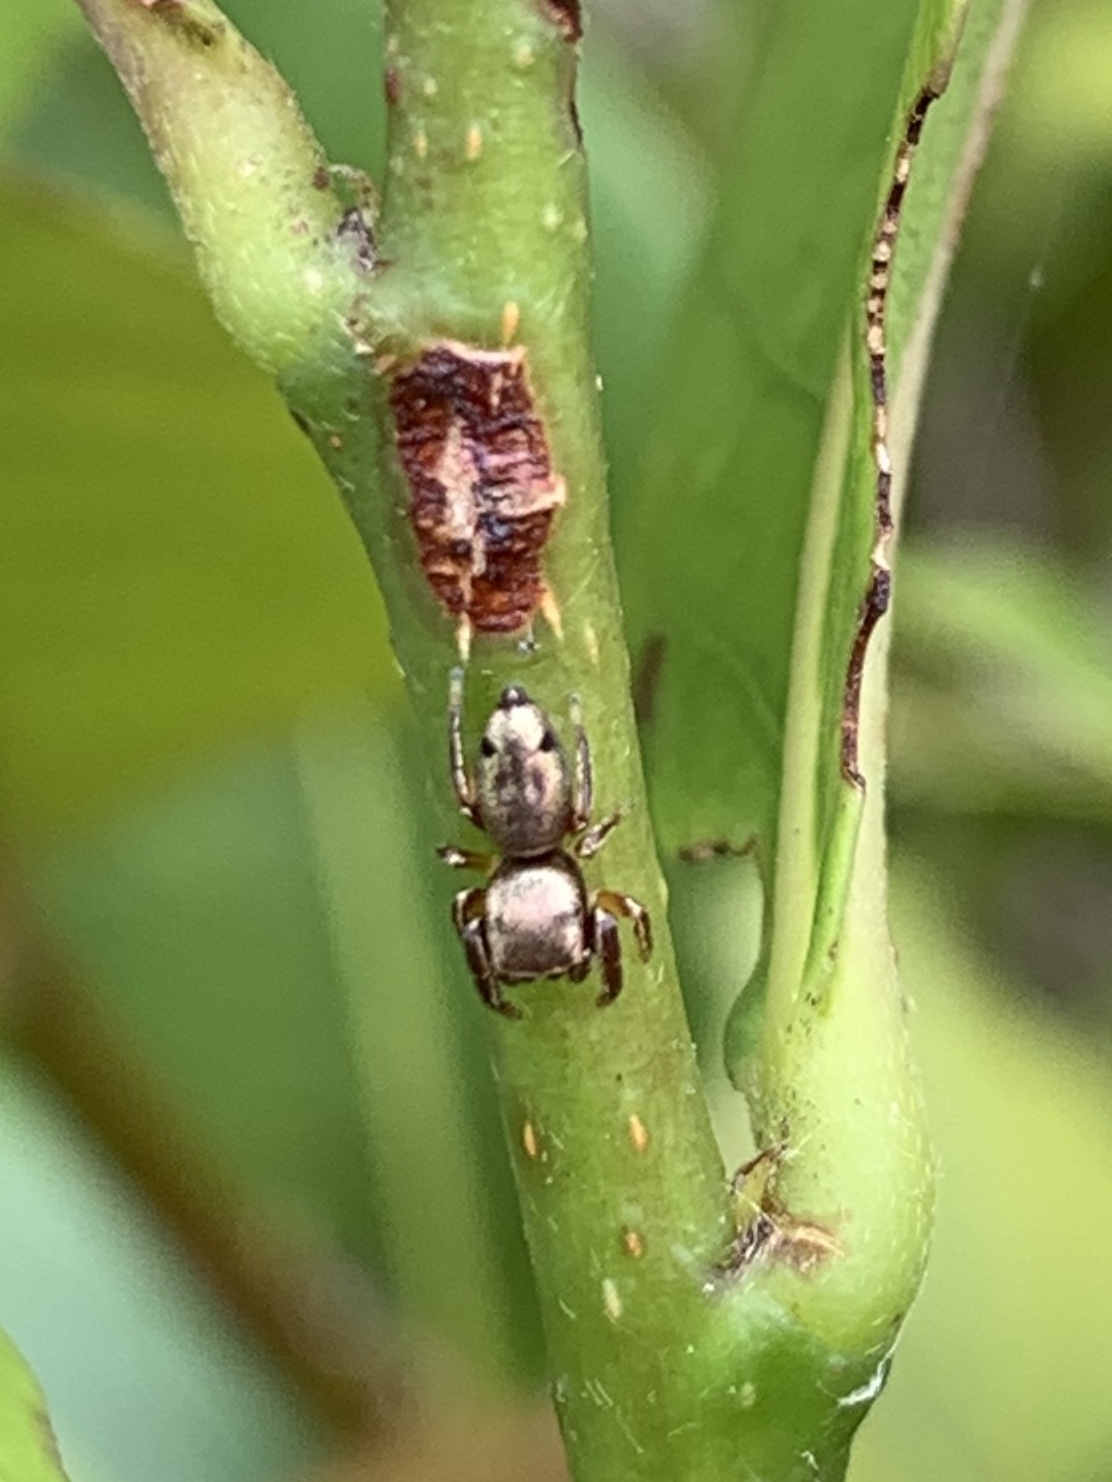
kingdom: Animalia
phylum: Arthropoda
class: Arachnida
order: Araneae
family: Salticidae
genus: Beata
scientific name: Beata wickhami
